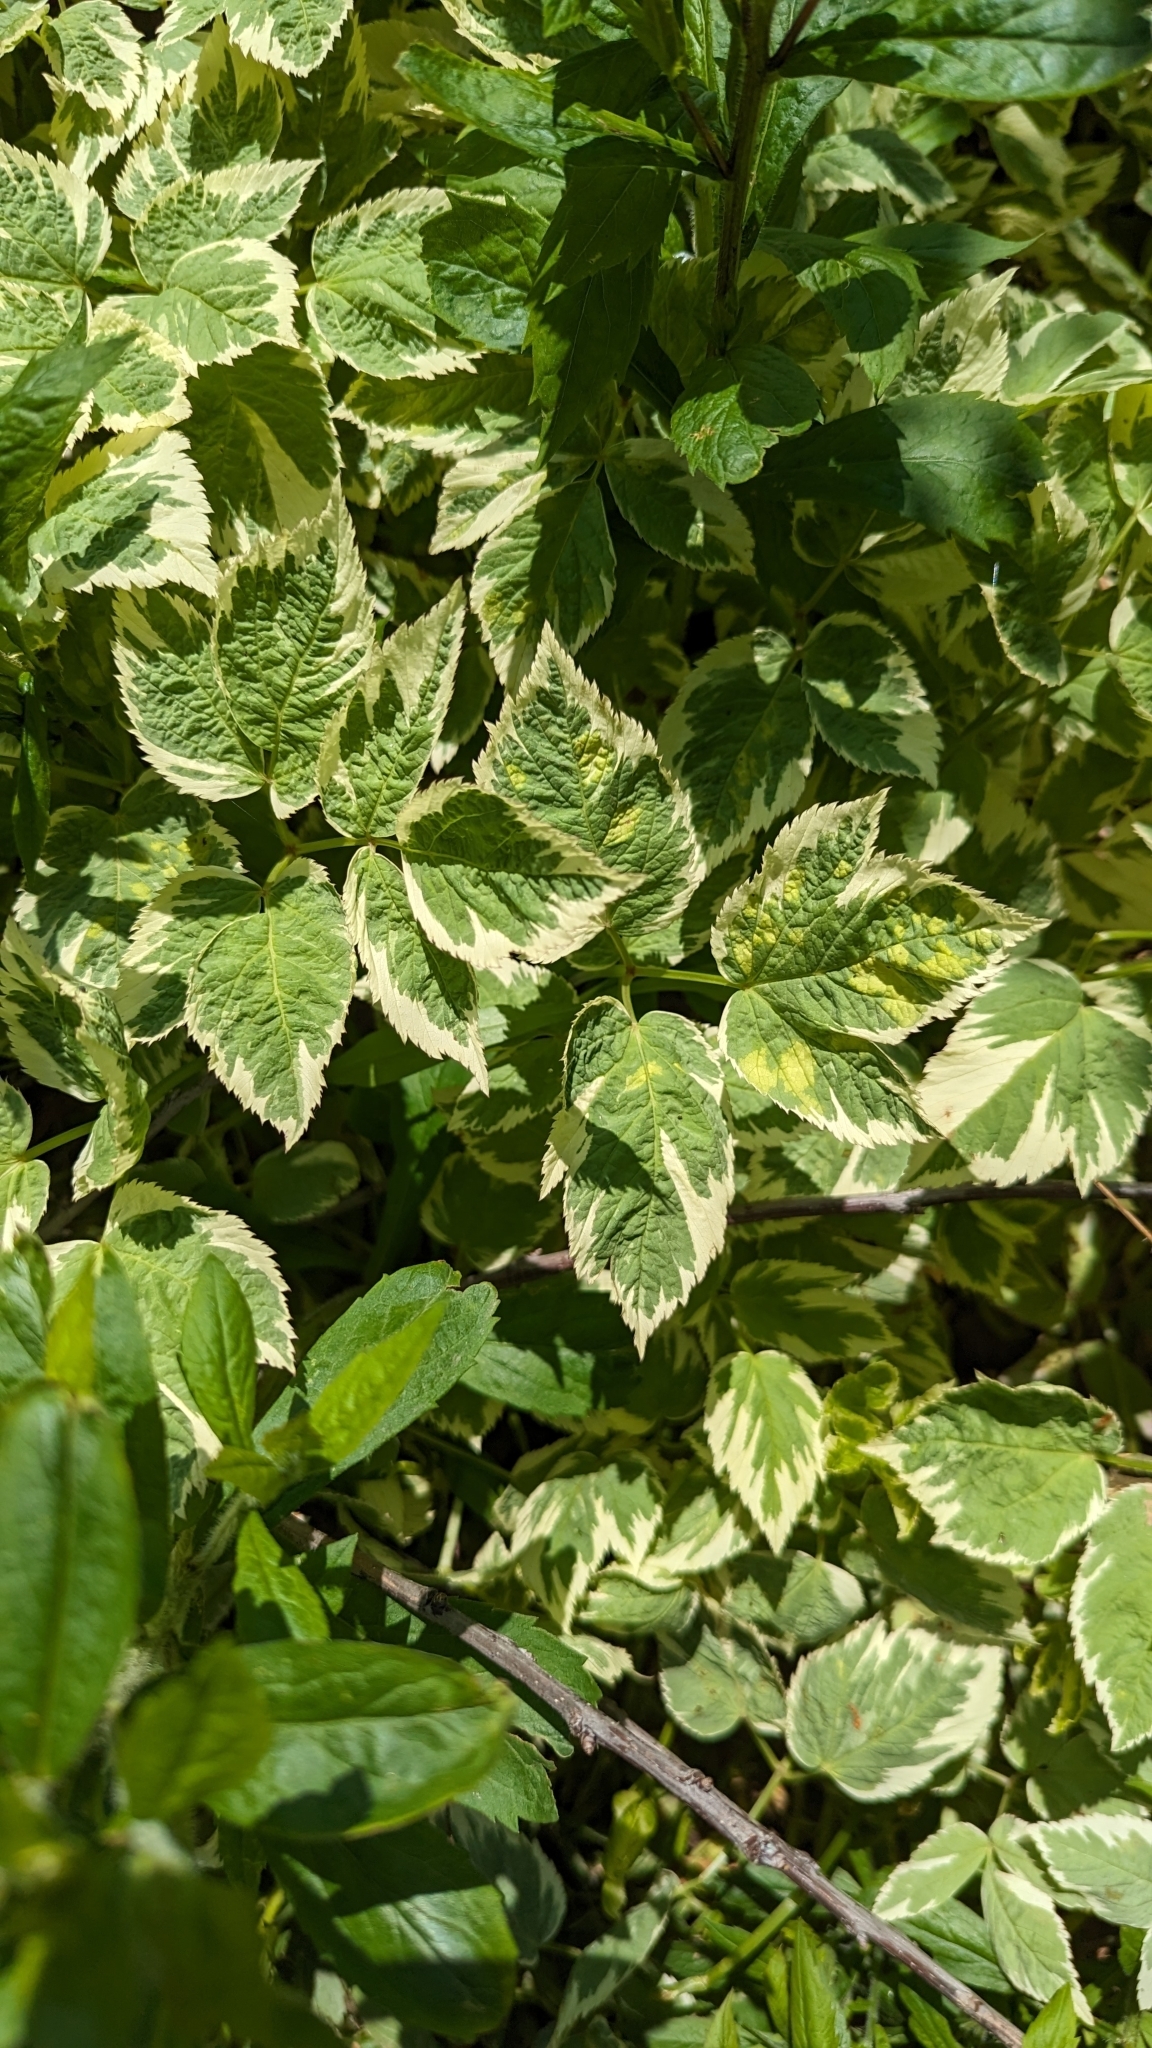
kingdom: Plantae
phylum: Tracheophyta
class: Magnoliopsida
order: Apiales
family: Apiaceae
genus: Aegopodium
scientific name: Aegopodium podagraria
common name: Ground-elder
